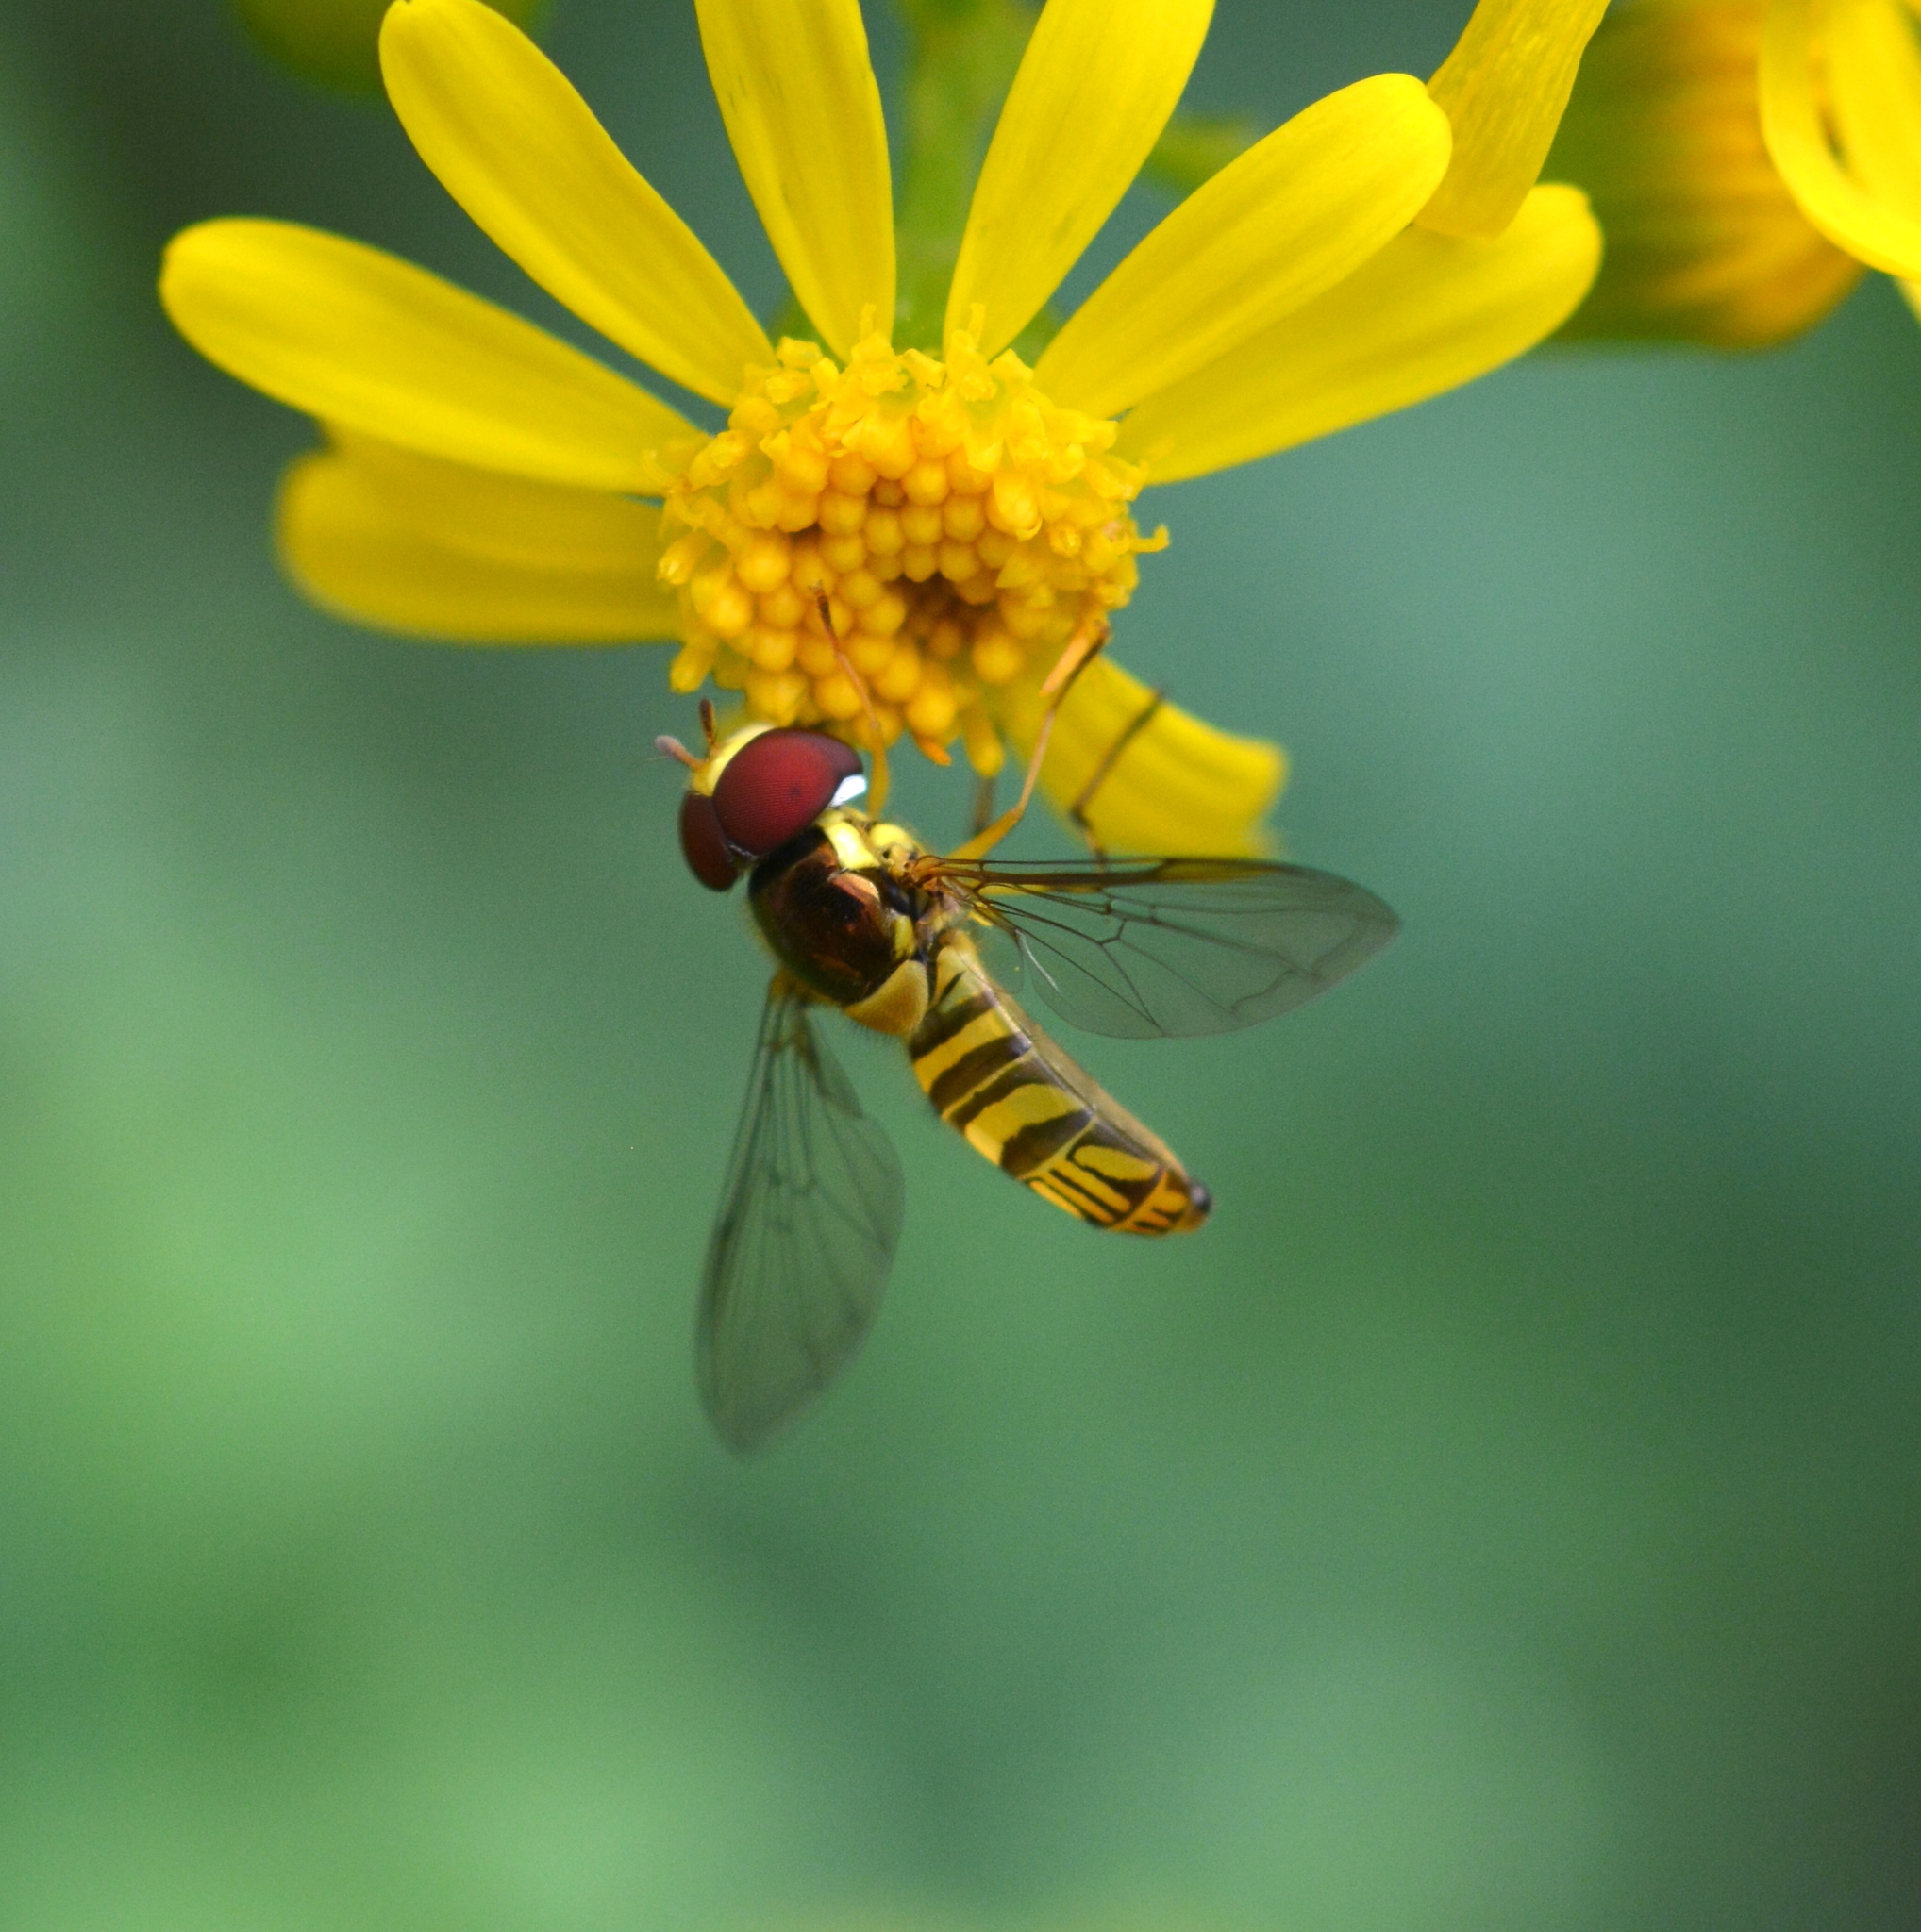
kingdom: Animalia
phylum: Arthropoda
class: Insecta
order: Diptera
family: Syrphidae
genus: Allograpta
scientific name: Allograpta obliqua
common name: Common oblique syrphid
